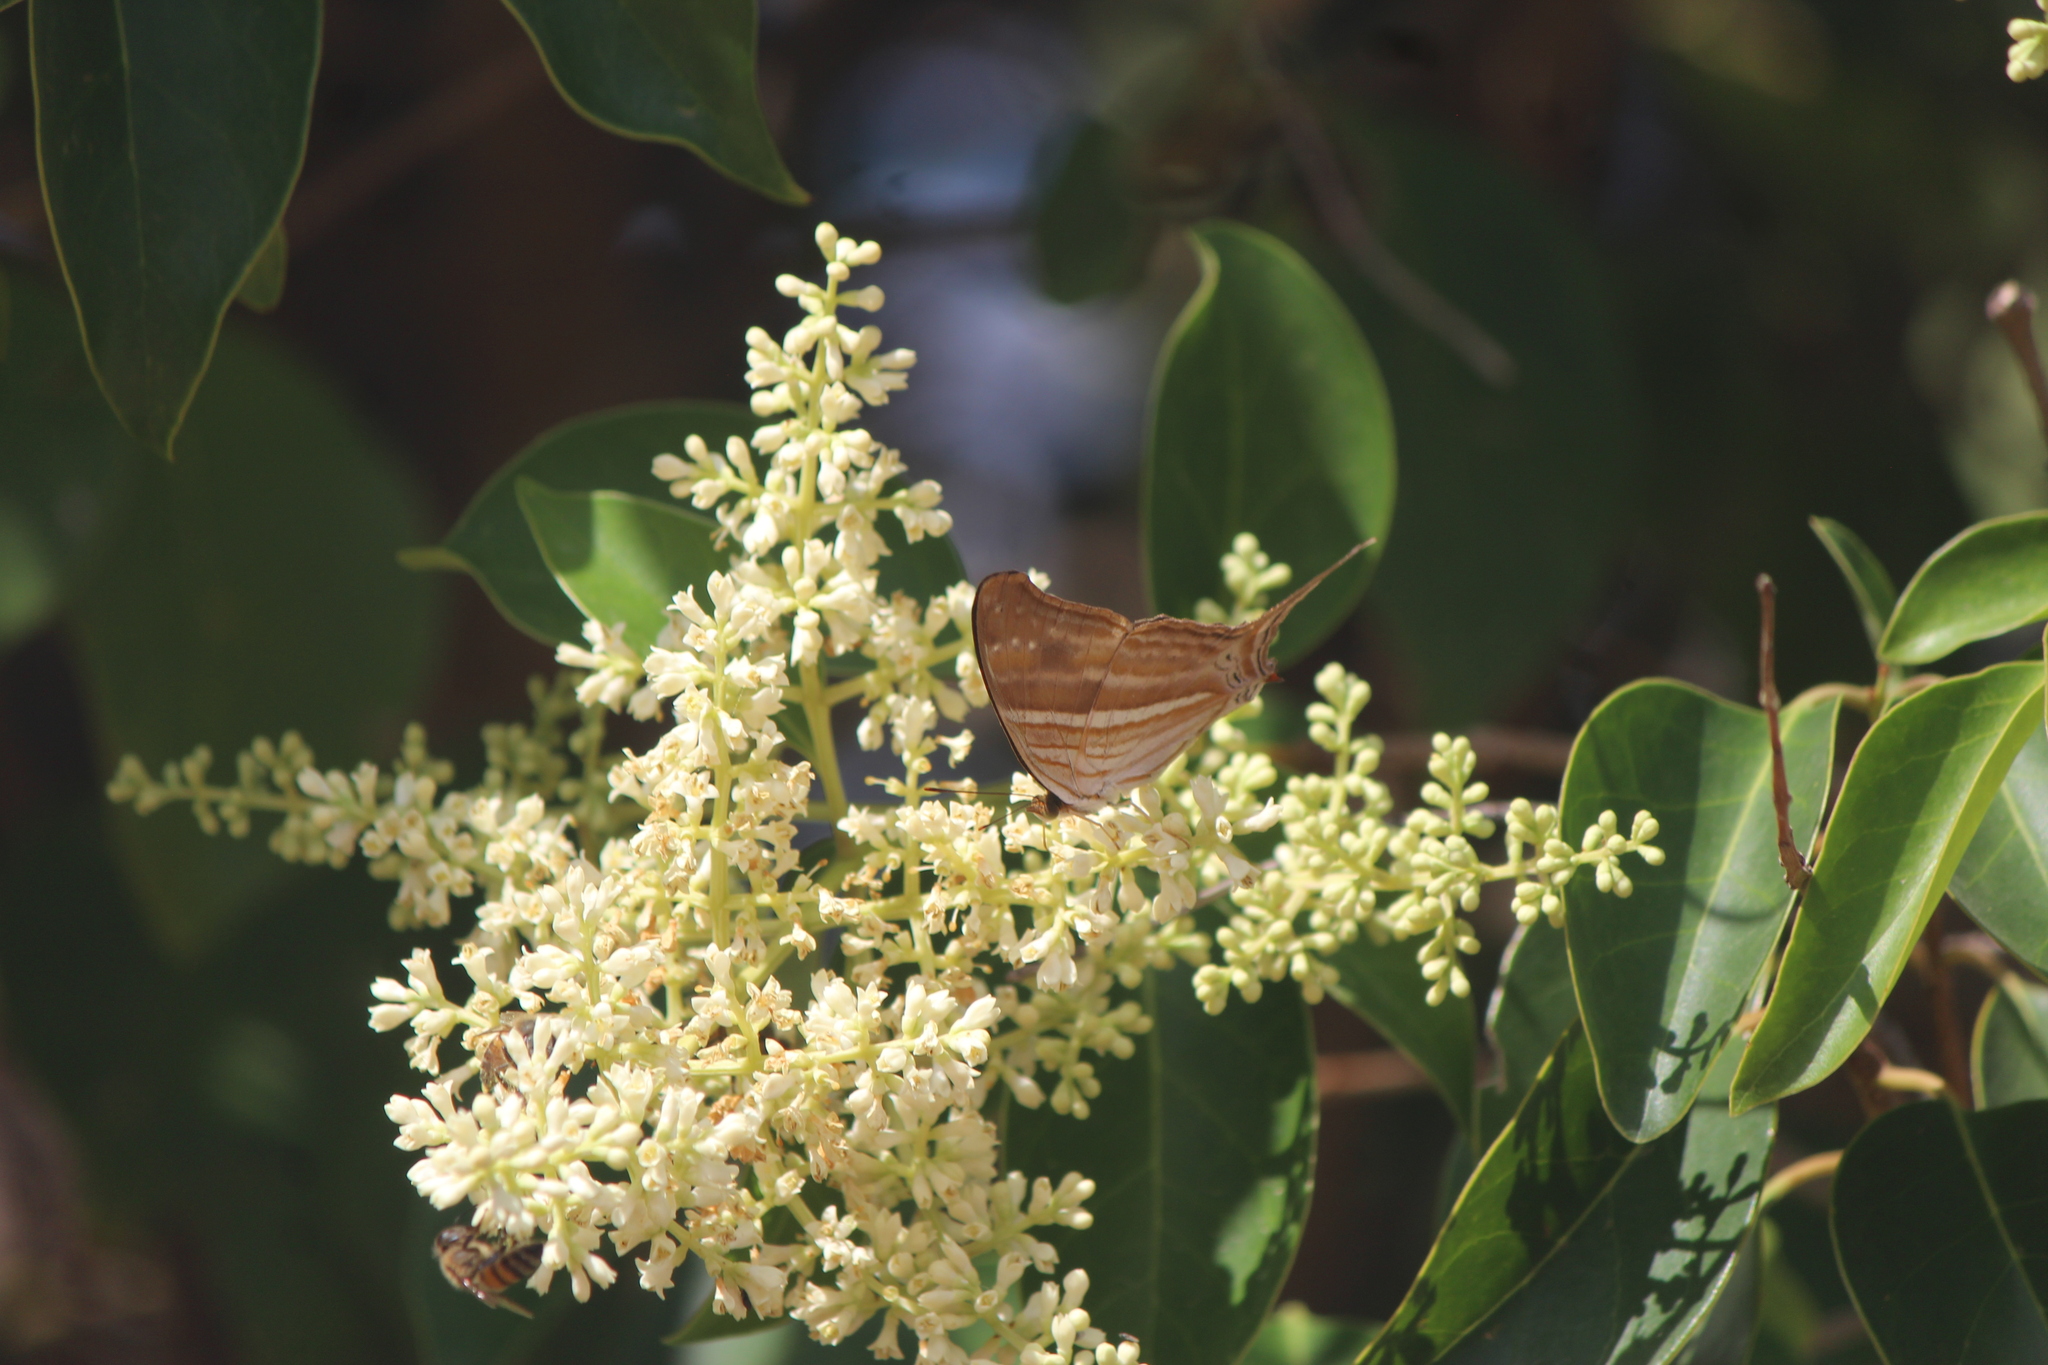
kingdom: Animalia
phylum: Arthropoda
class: Insecta
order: Lepidoptera
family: Nymphalidae
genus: Marpesia
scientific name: Marpesia chiron
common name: Many-banded daggerwing
